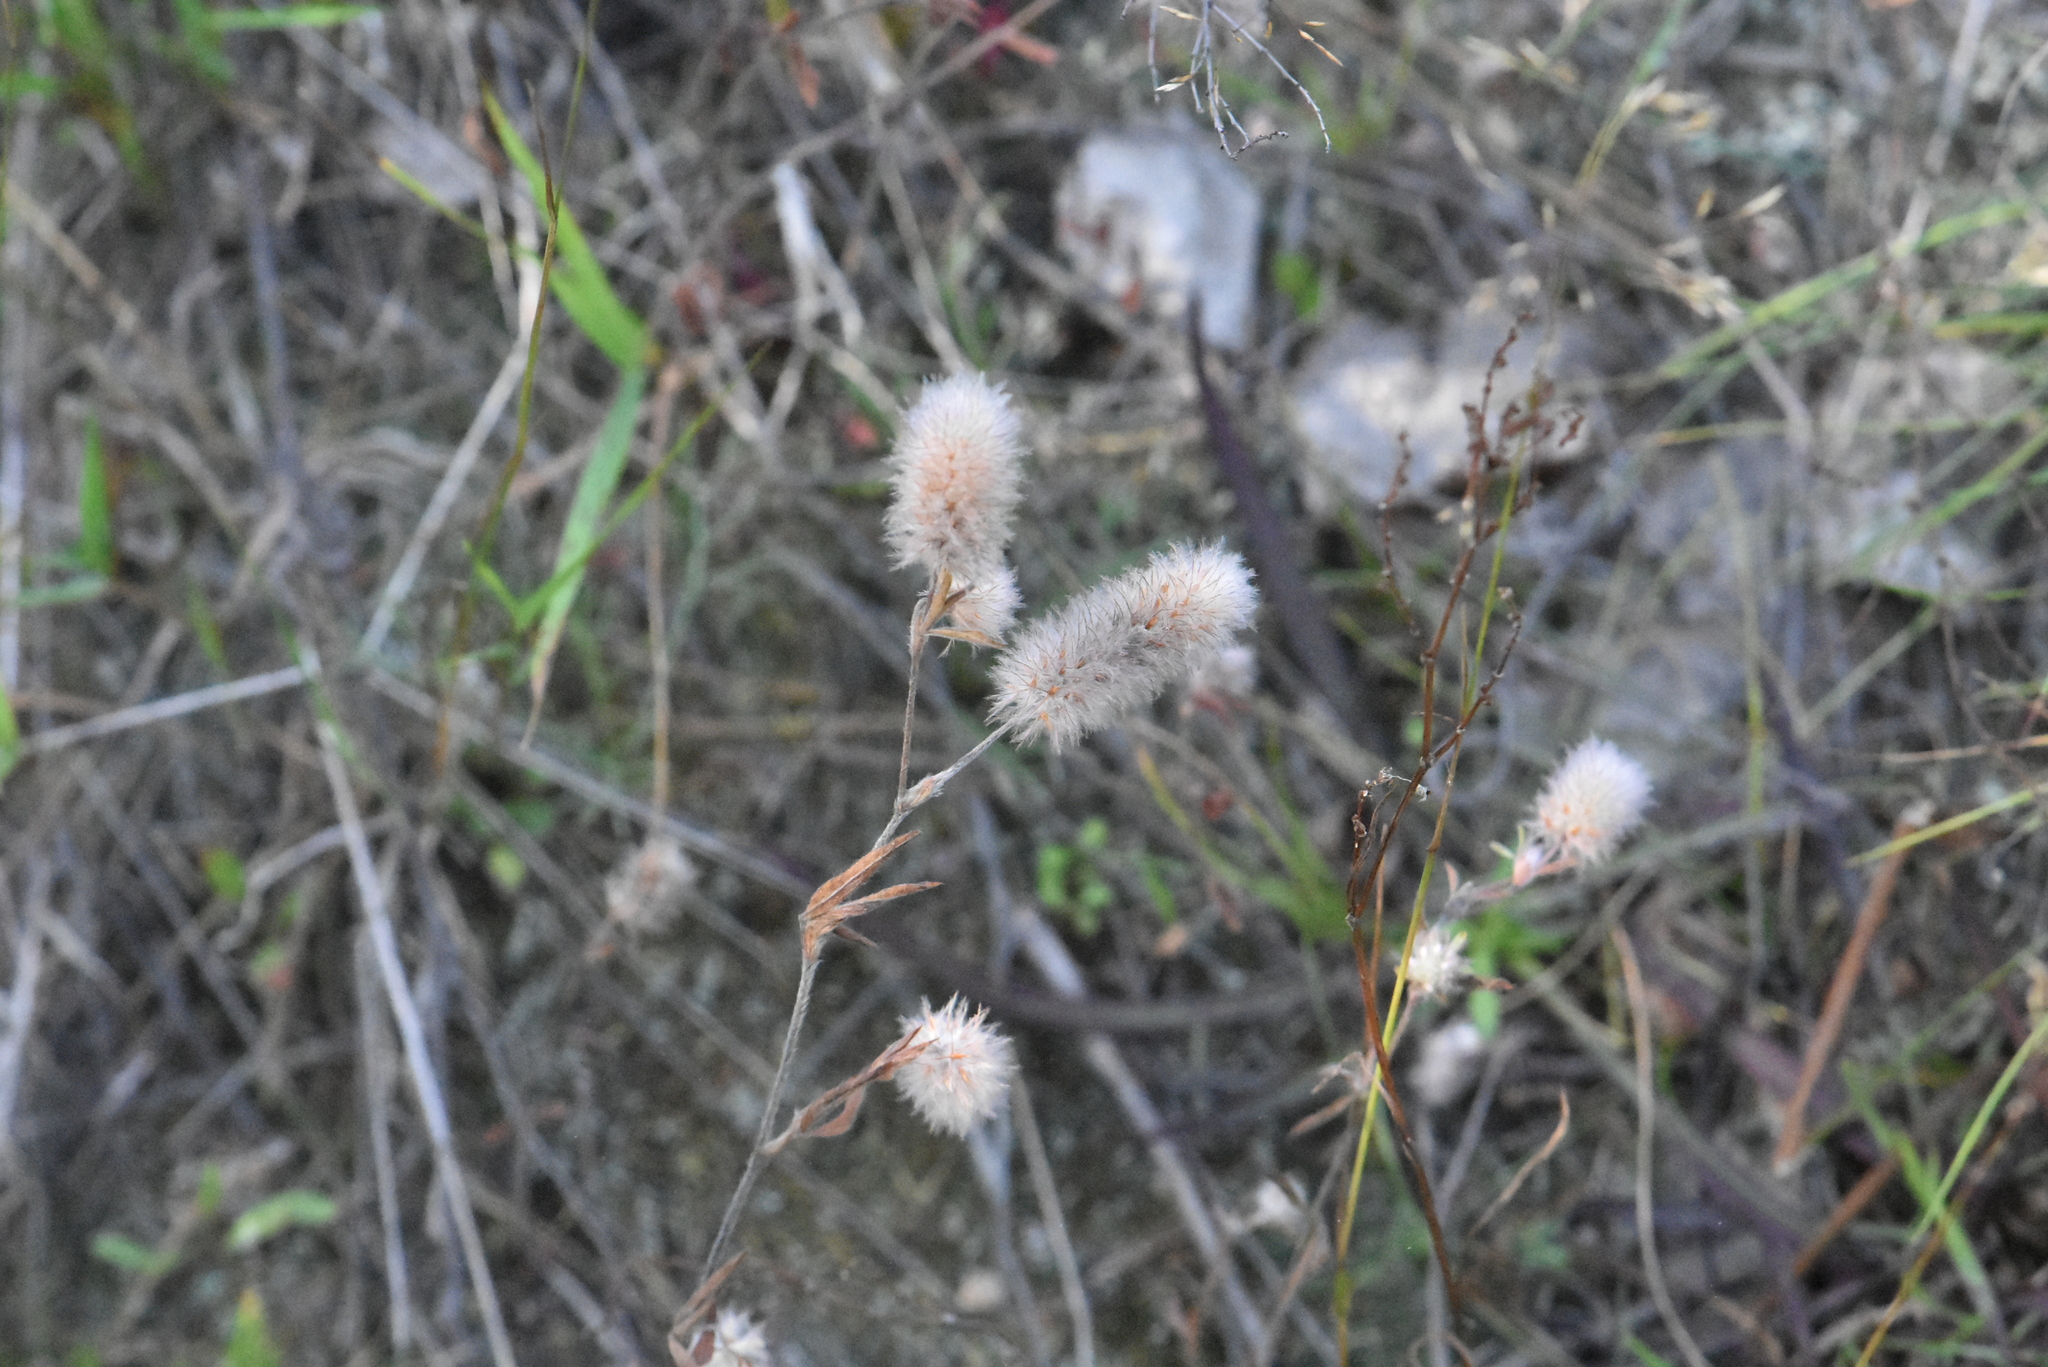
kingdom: Plantae
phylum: Tracheophyta
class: Magnoliopsida
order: Fabales
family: Fabaceae
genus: Trifolium
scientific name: Trifolium arvense
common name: Hare's-foot clover
